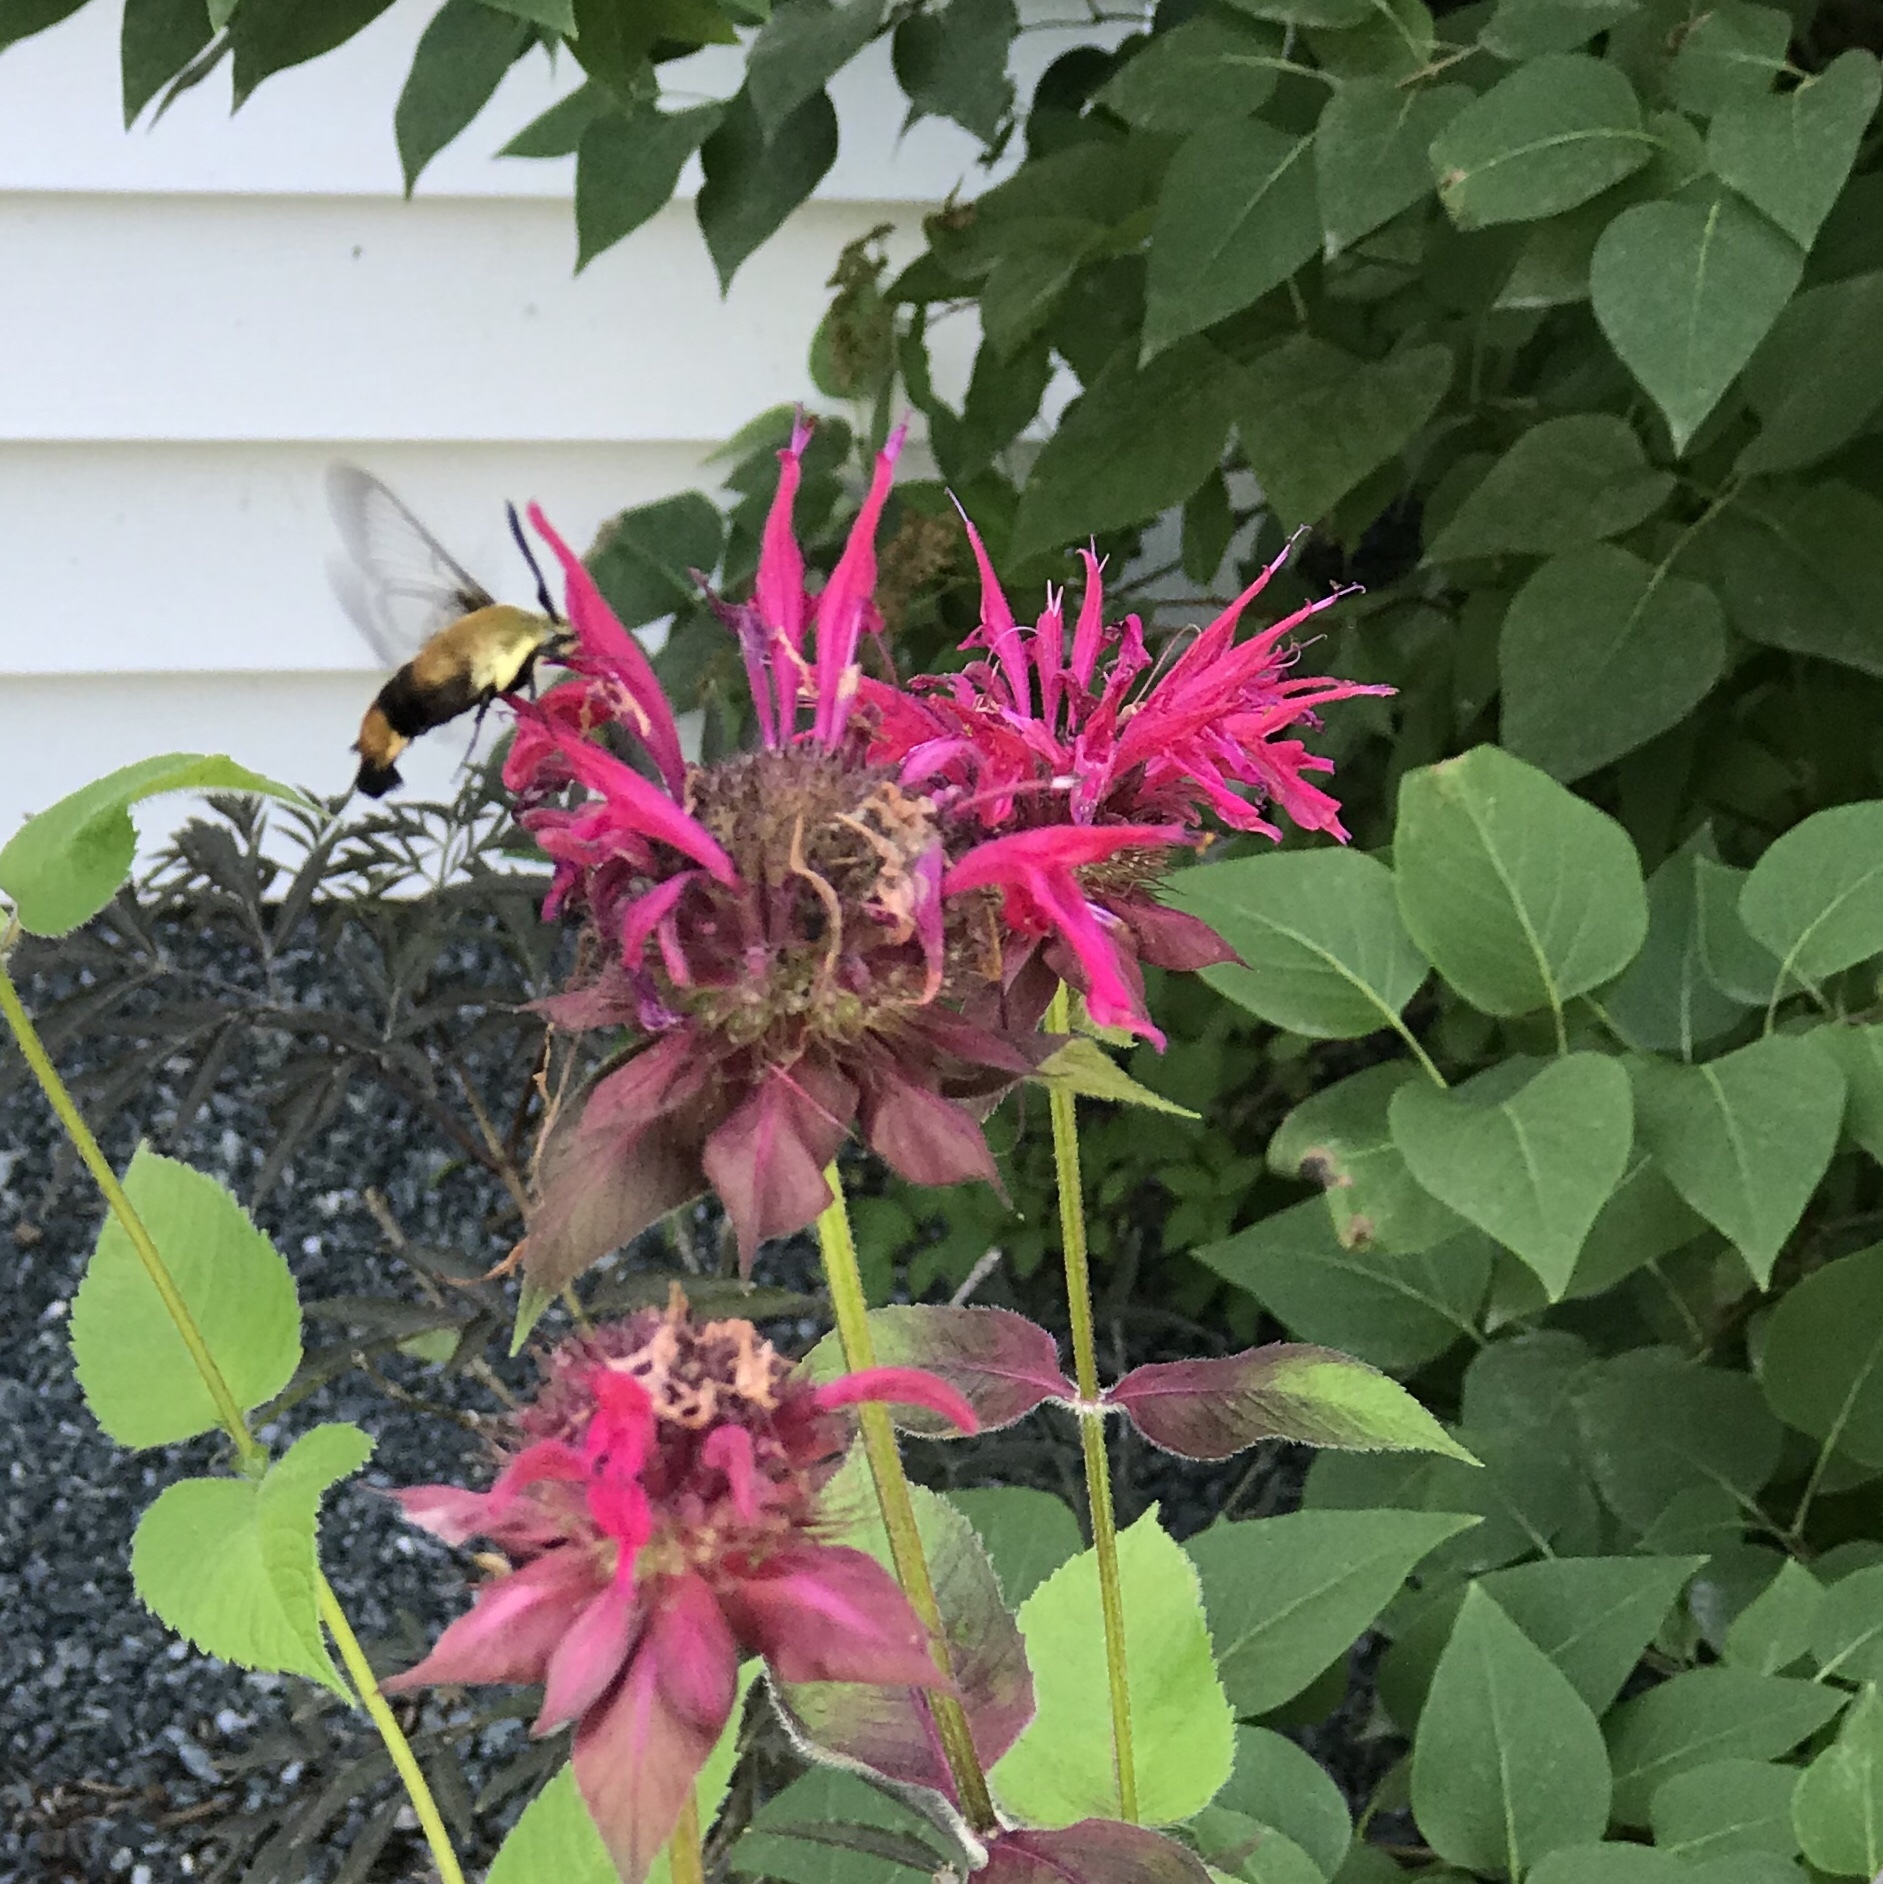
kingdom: Animalia
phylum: Arthropoda
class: Insecta
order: Lepidoptera
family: Sphingidae
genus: Hemaris
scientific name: Hemaris diffinis
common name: Bumblebee moth
